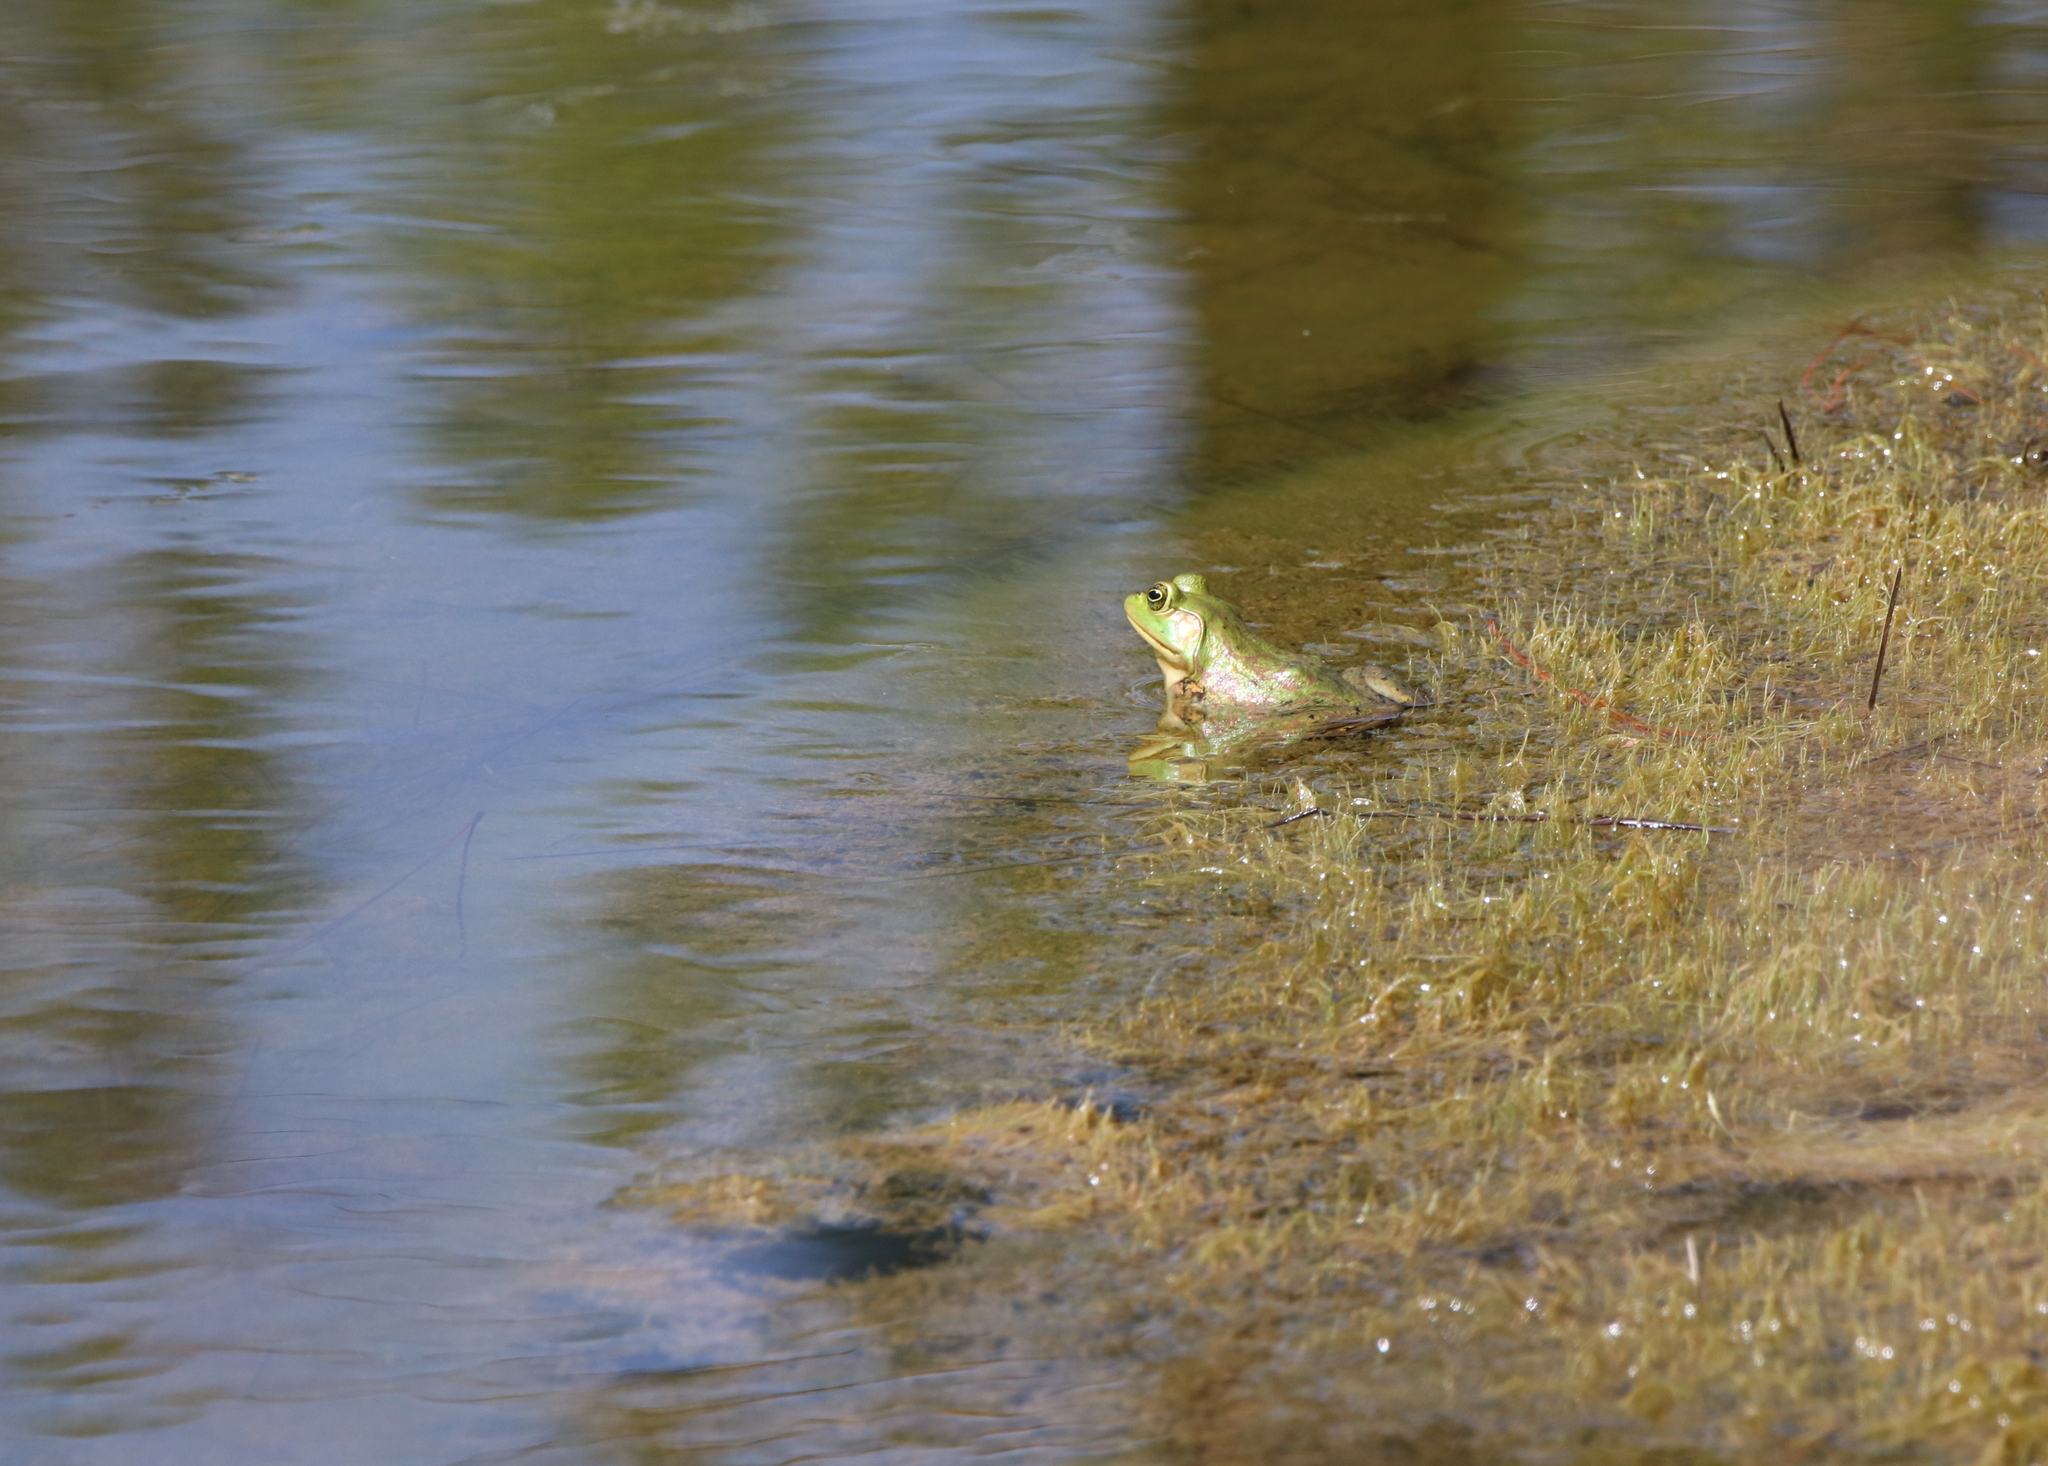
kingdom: Animalia
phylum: Chordata
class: Amphibia
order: Anura
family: Ranidae
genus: Lithobates
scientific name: Lithobates catesbeianus
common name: American bullfrog
